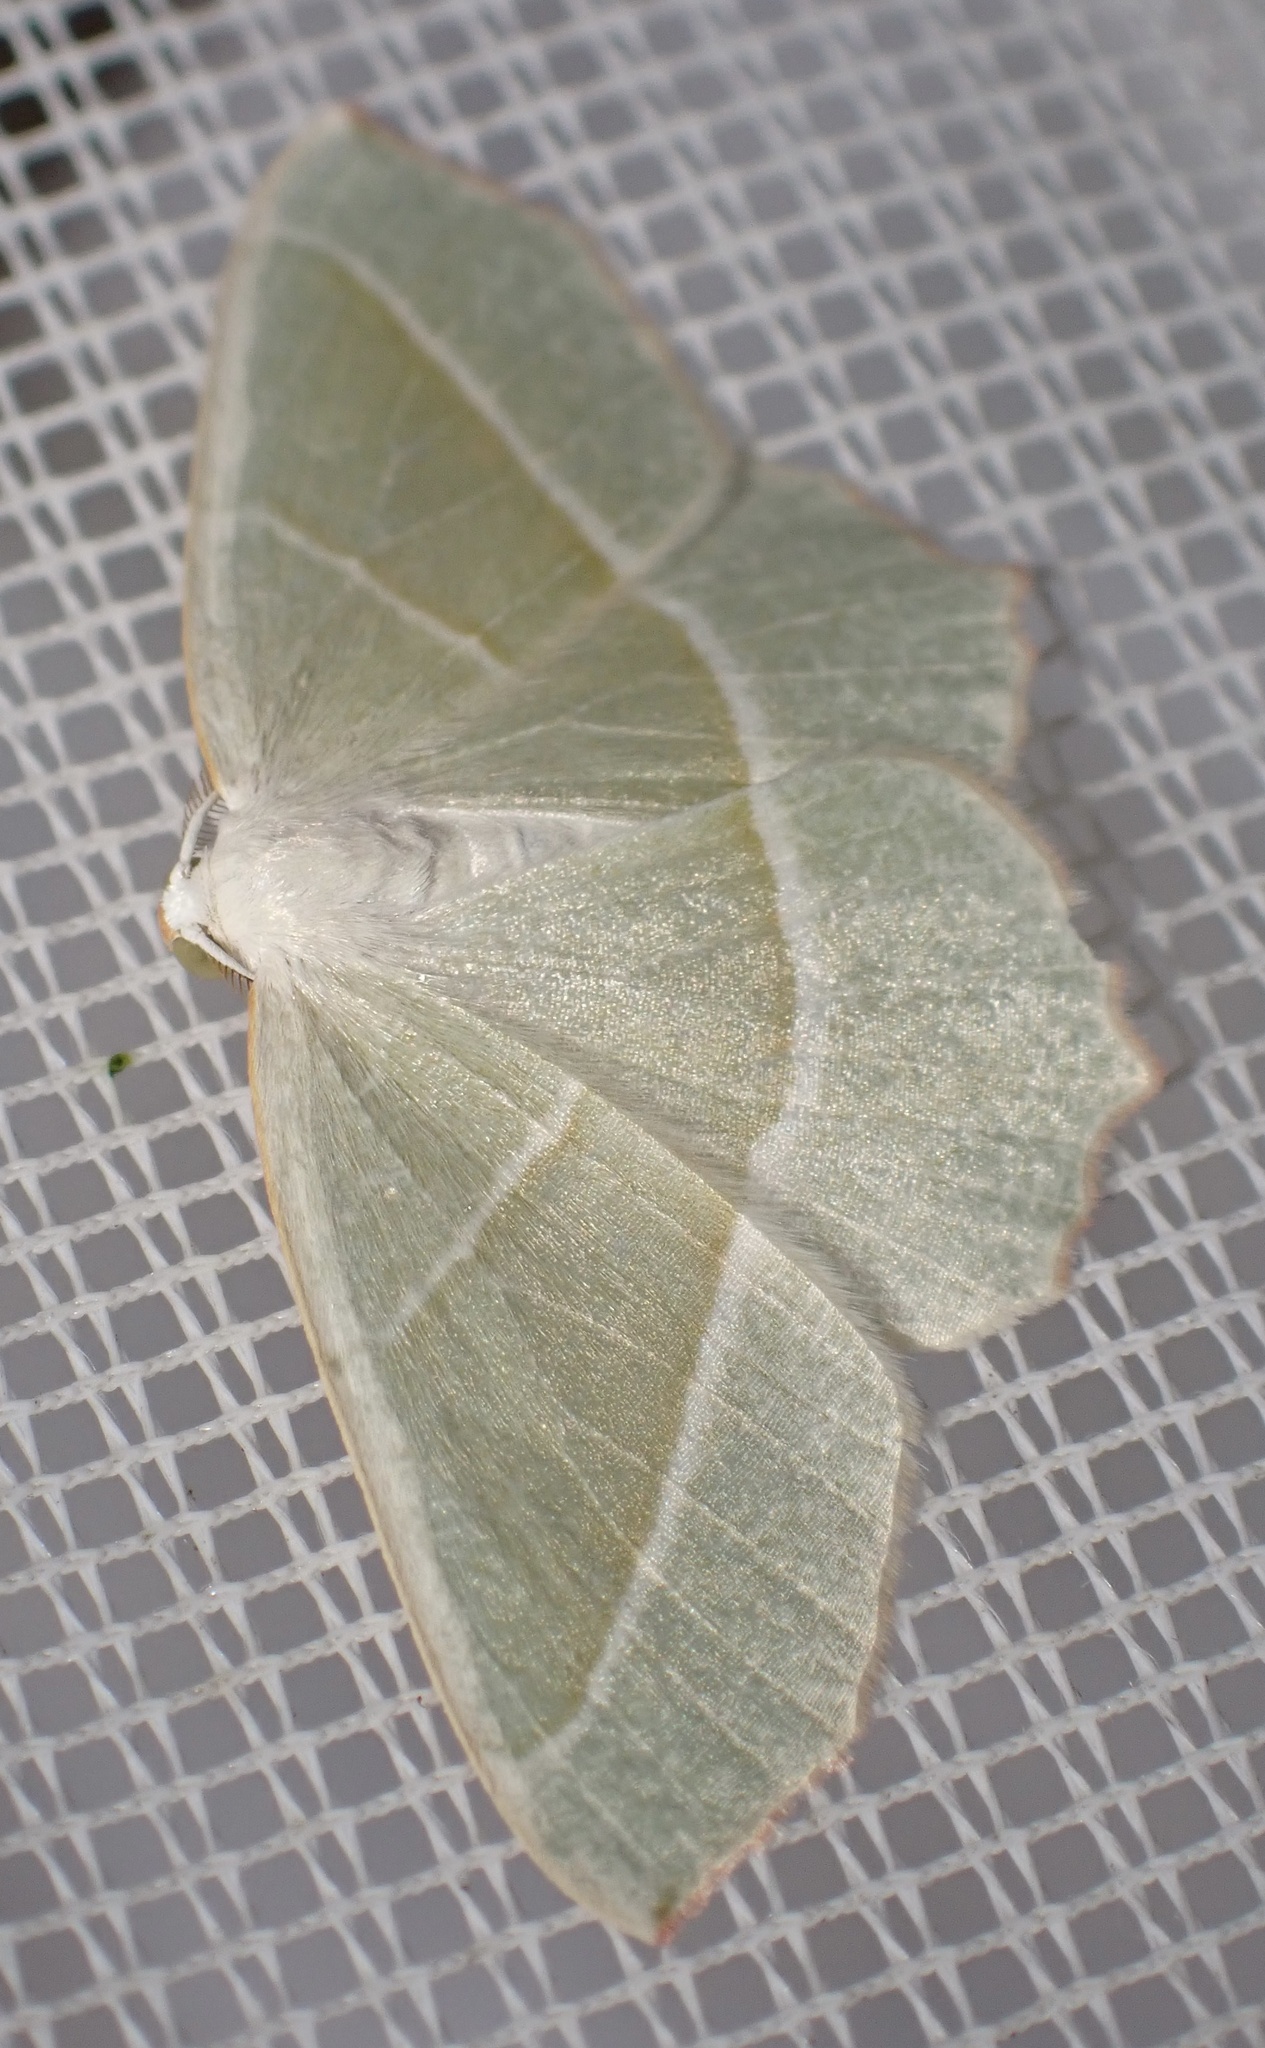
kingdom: Animalia
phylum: Arthropoda
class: Insecta
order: Lepidoptera
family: Geometridae
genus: Campaea
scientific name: Campaea margaritaria
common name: Light emerald
